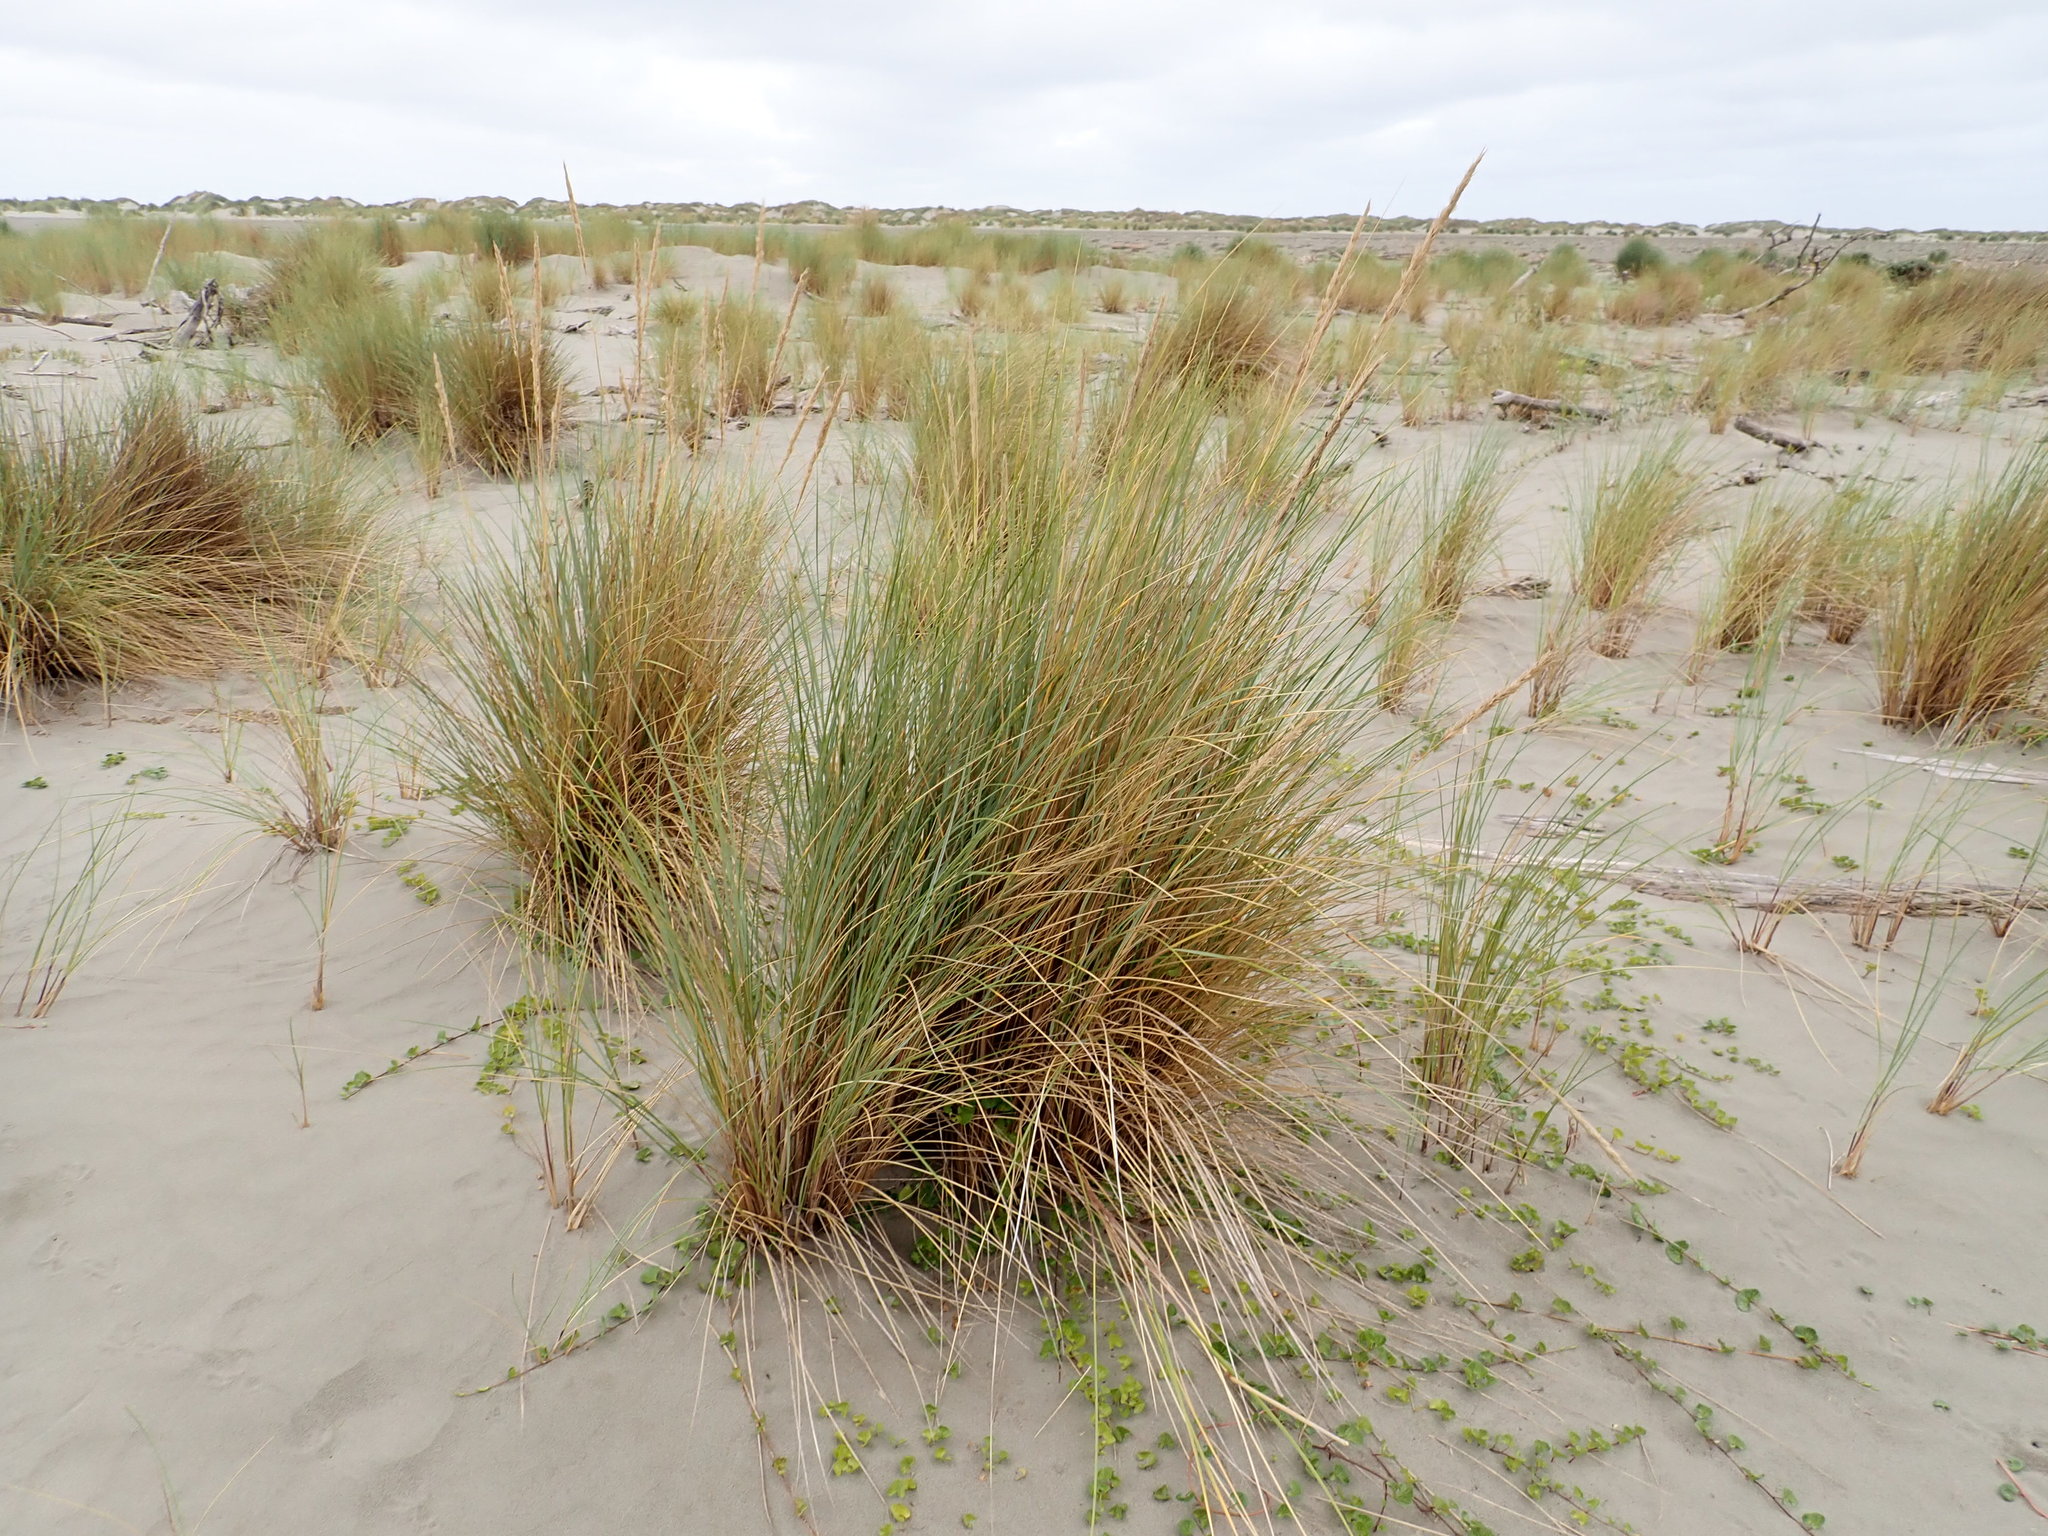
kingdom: Plantae
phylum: Tracheophyta
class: Liliopsida
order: Poales
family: Poaceae
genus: Calamagrostis
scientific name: Calamagrostis arenaria
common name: European beachgrass
